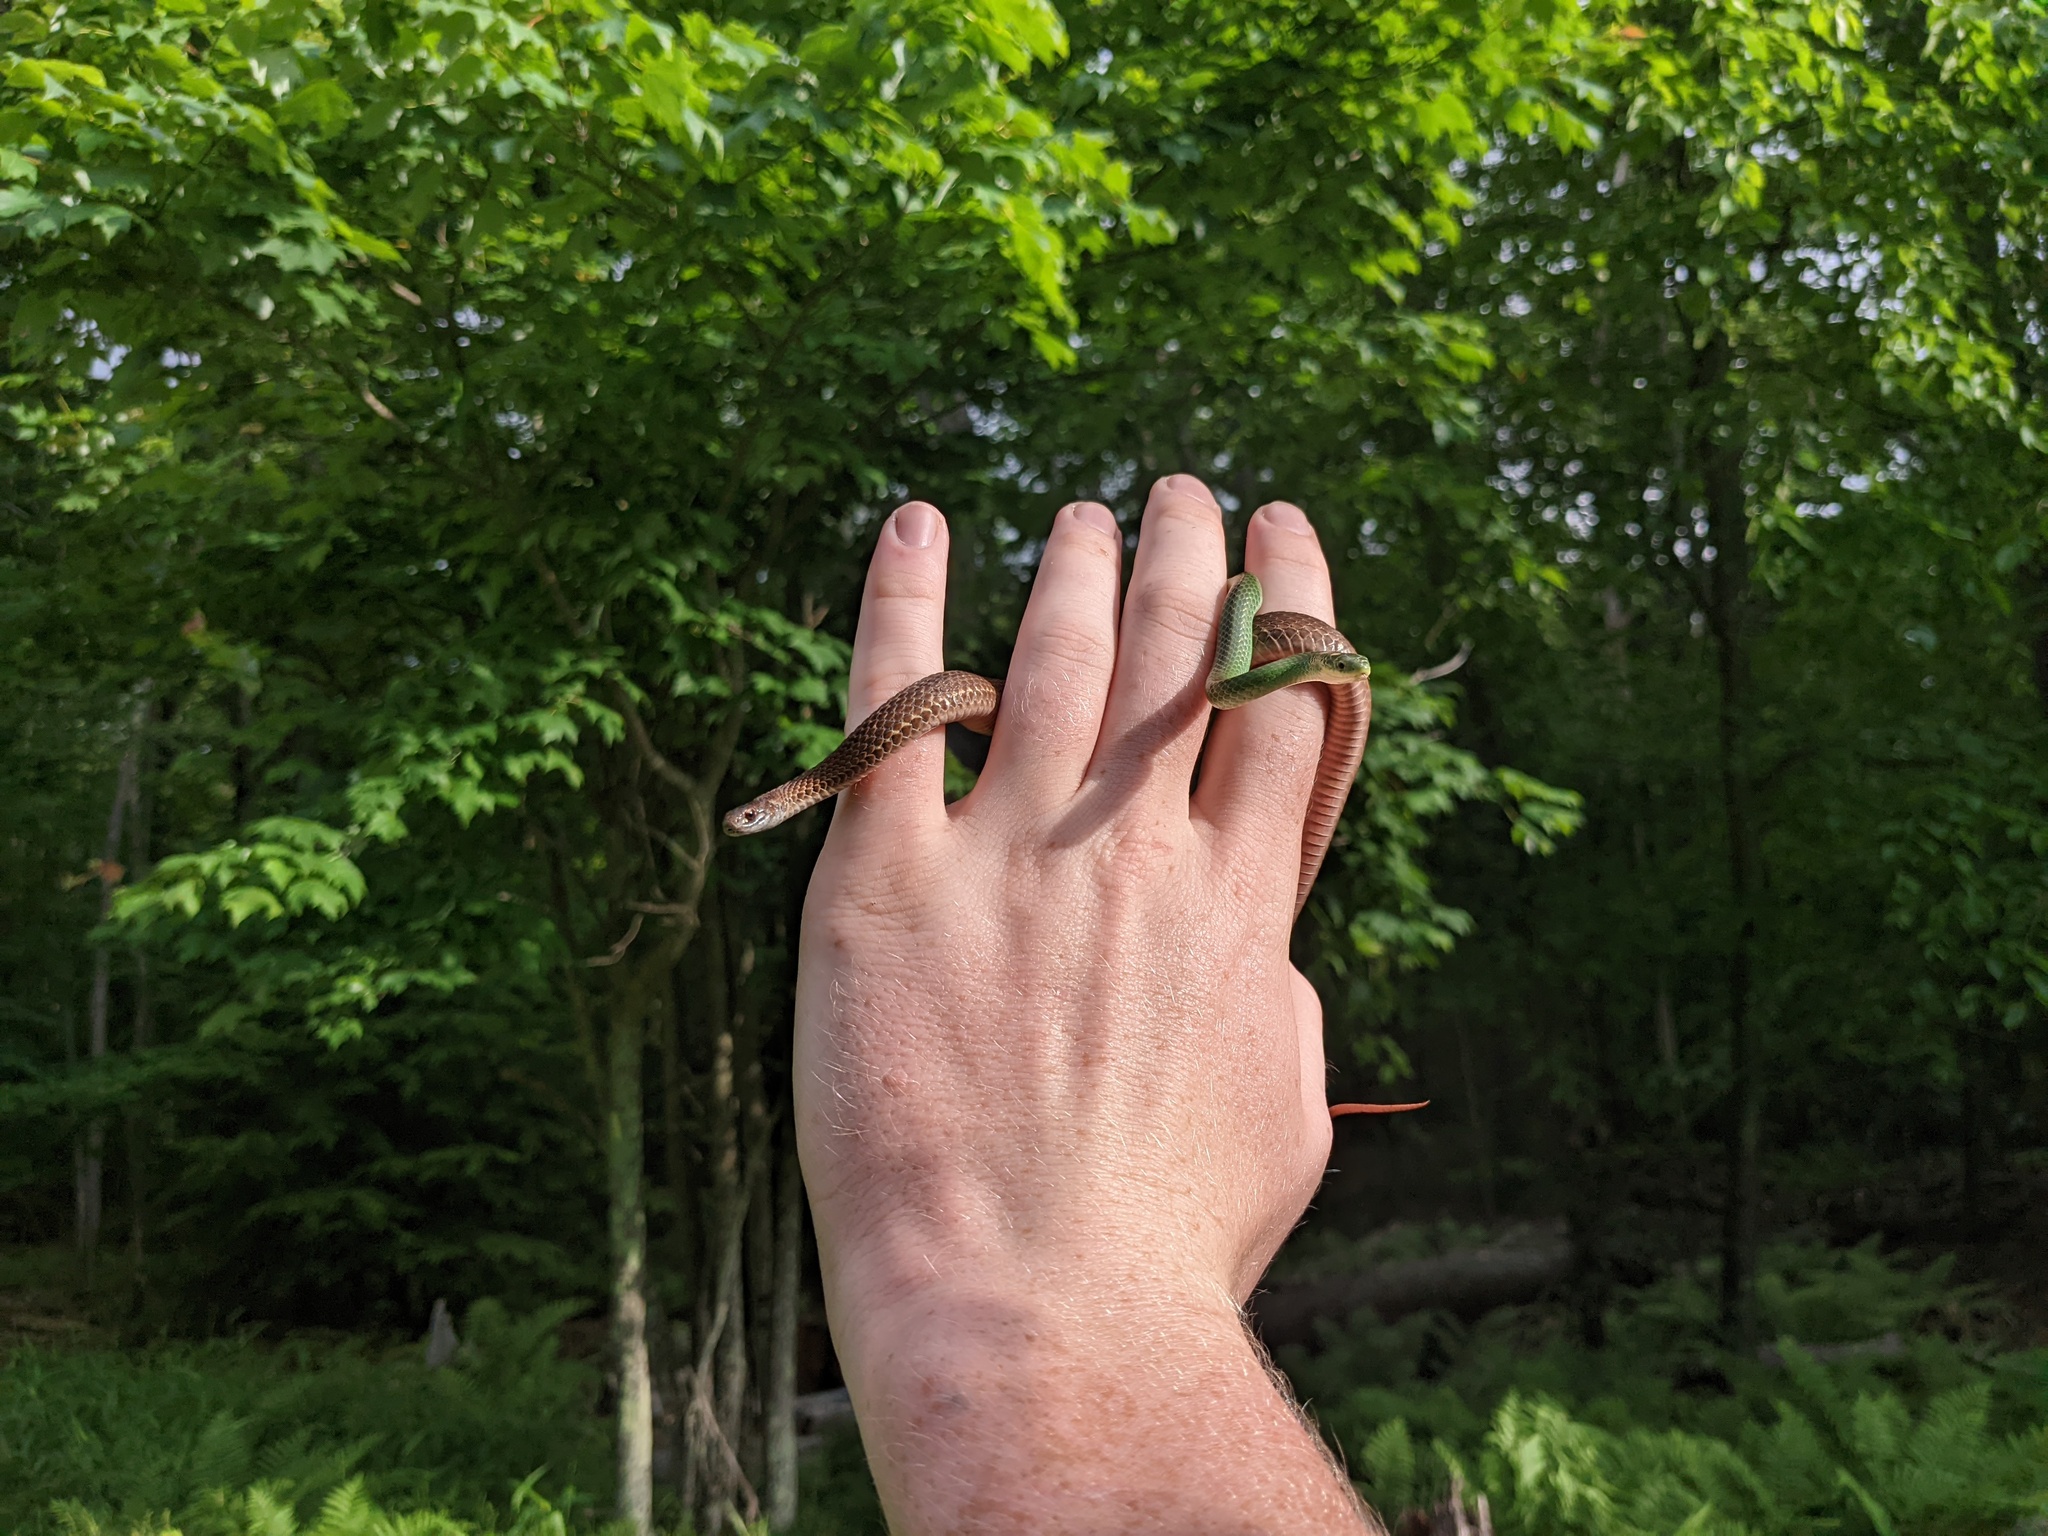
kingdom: Animalia
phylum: Chordata
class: Squamata
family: Colubridae
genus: Opheodrys
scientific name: Opheodrys vernalis
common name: Smooth green snake
